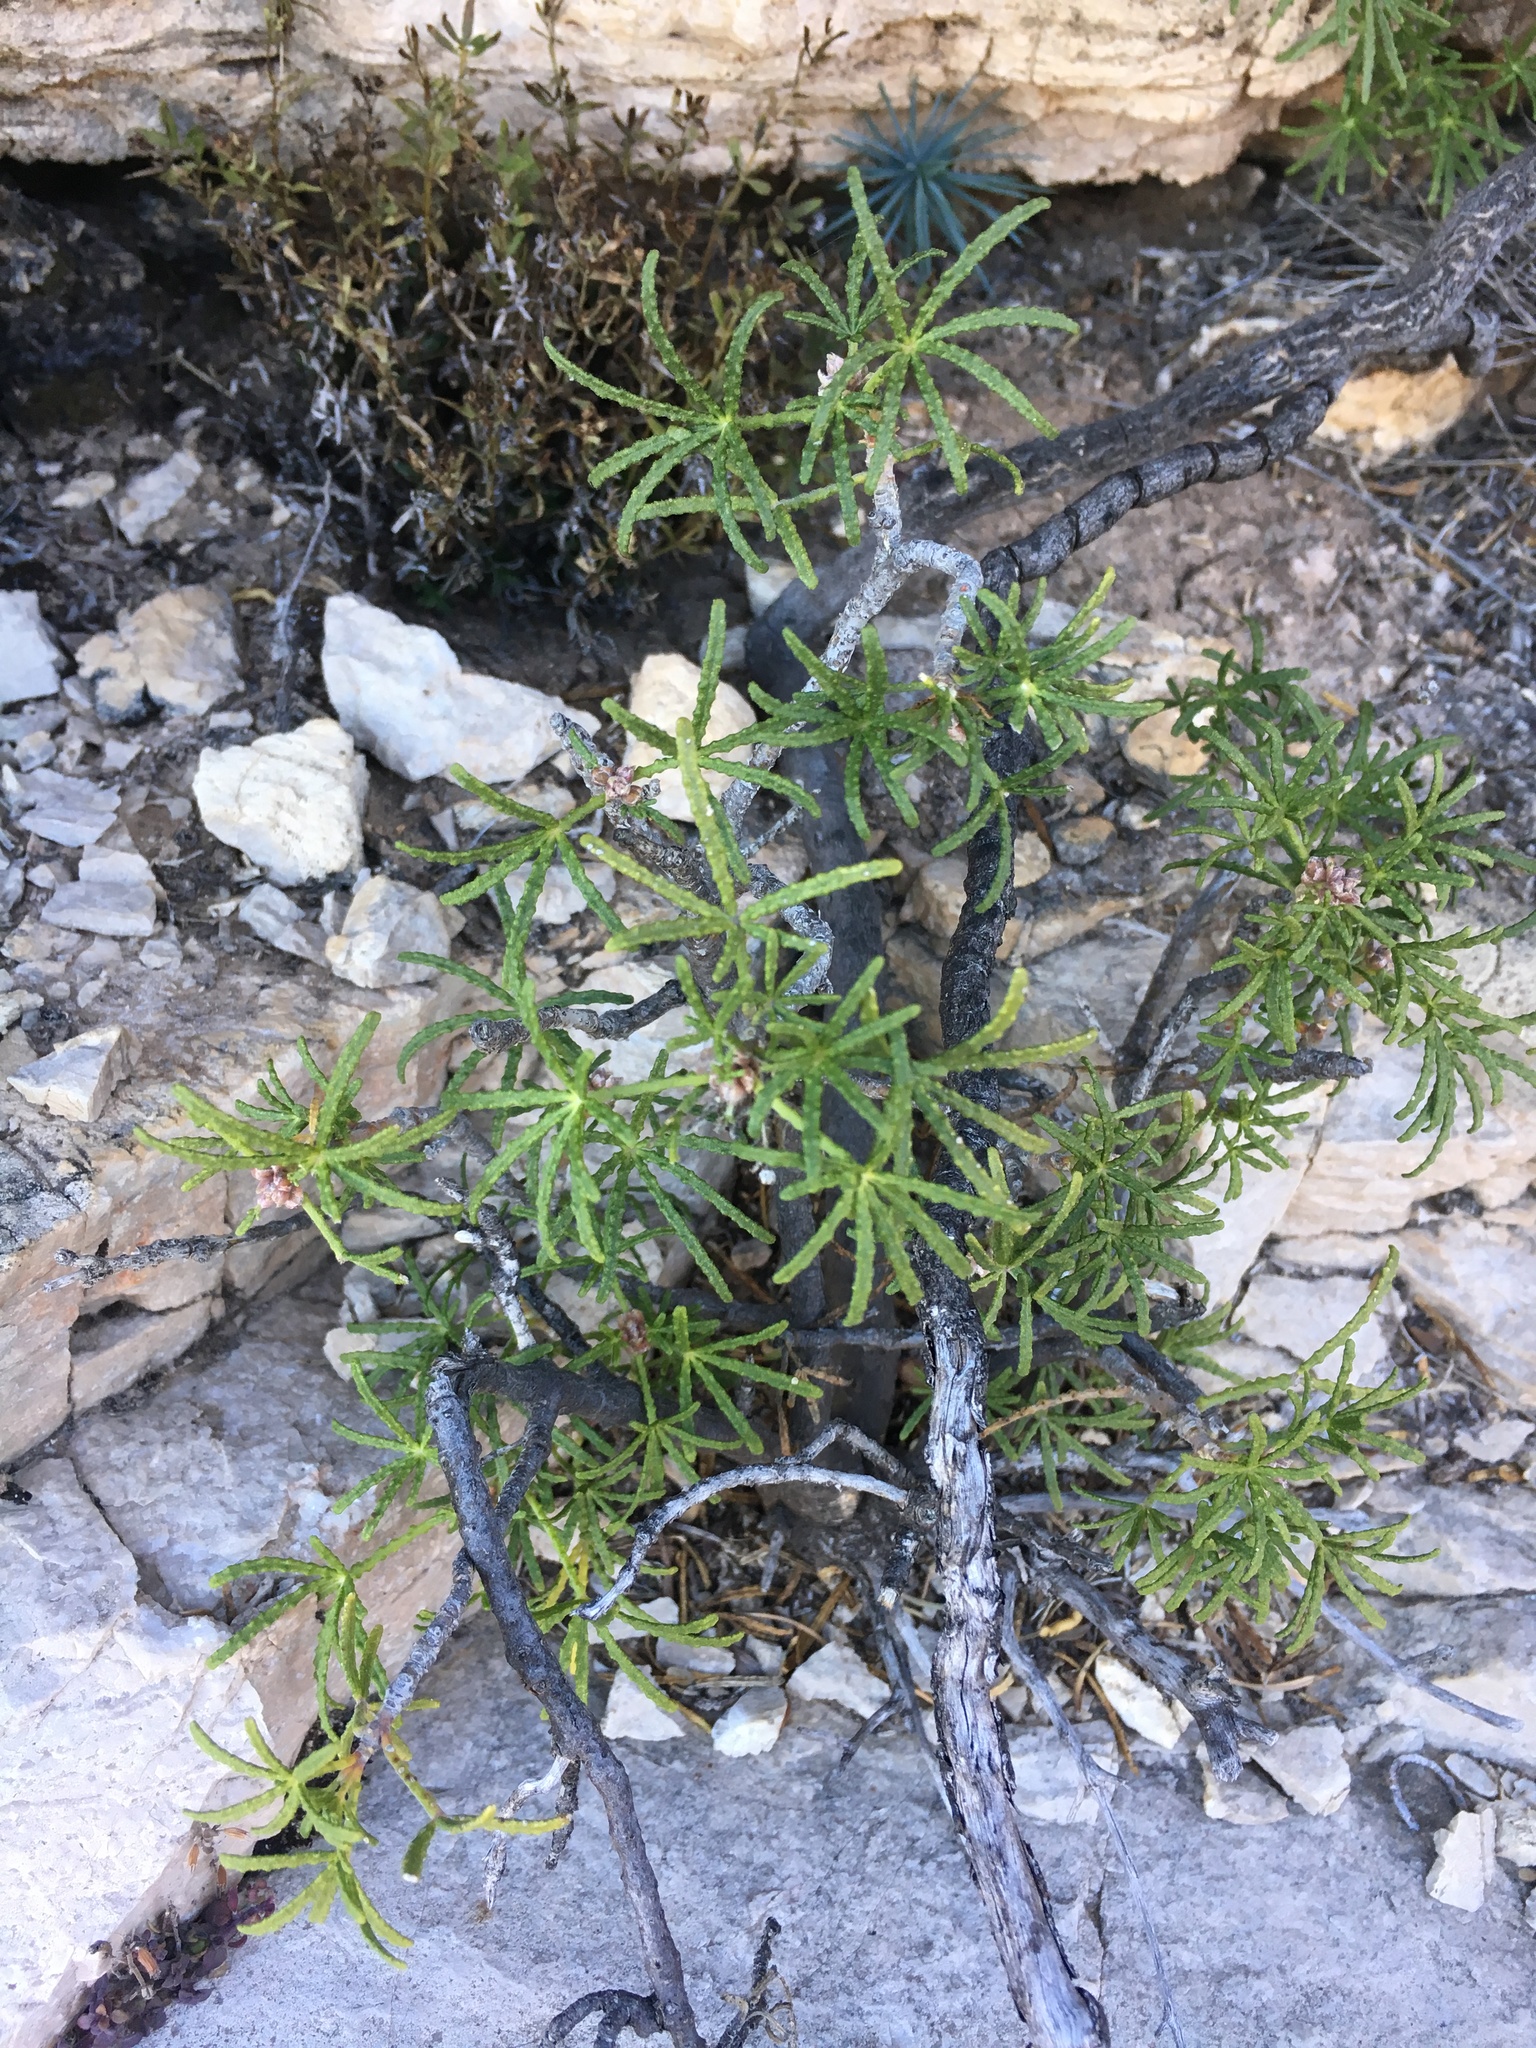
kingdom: Plantae
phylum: Tracheophyta
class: Magnoliopsida
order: Sapindales
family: Rutaceae
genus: Choisya
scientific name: Choisya dumosa
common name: Mexican-orange
